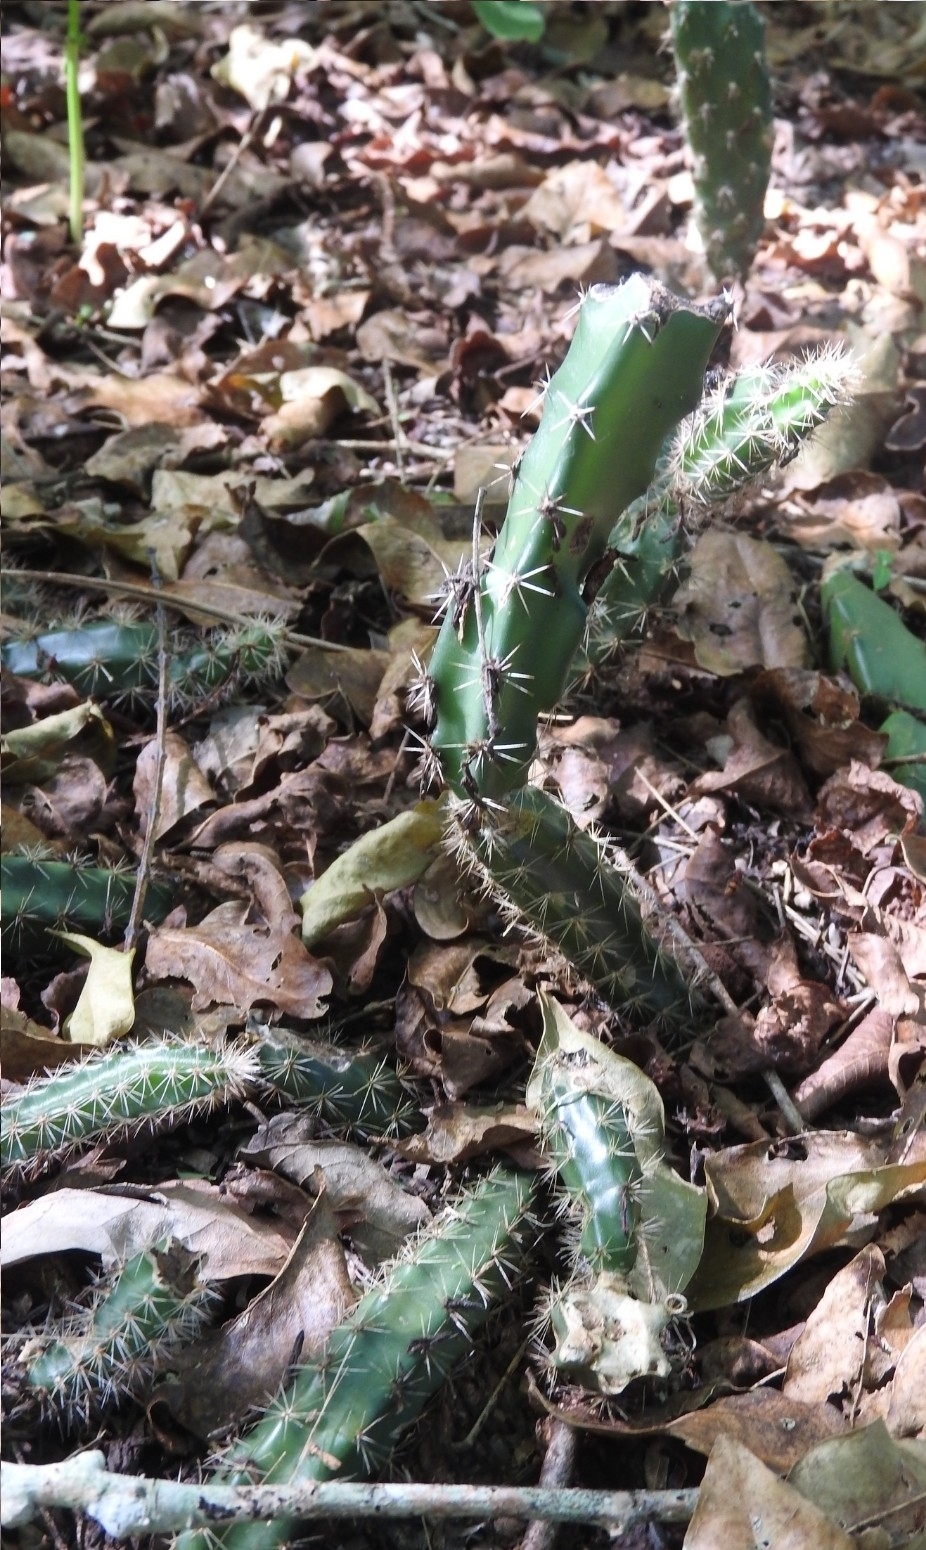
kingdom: Plantae
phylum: Tracheophyta
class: Magnoliopsida
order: Caryophyllales
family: Cactaceae
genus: Acanthocereus
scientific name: Acanthocereus tetragonus
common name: Triangle cactus
